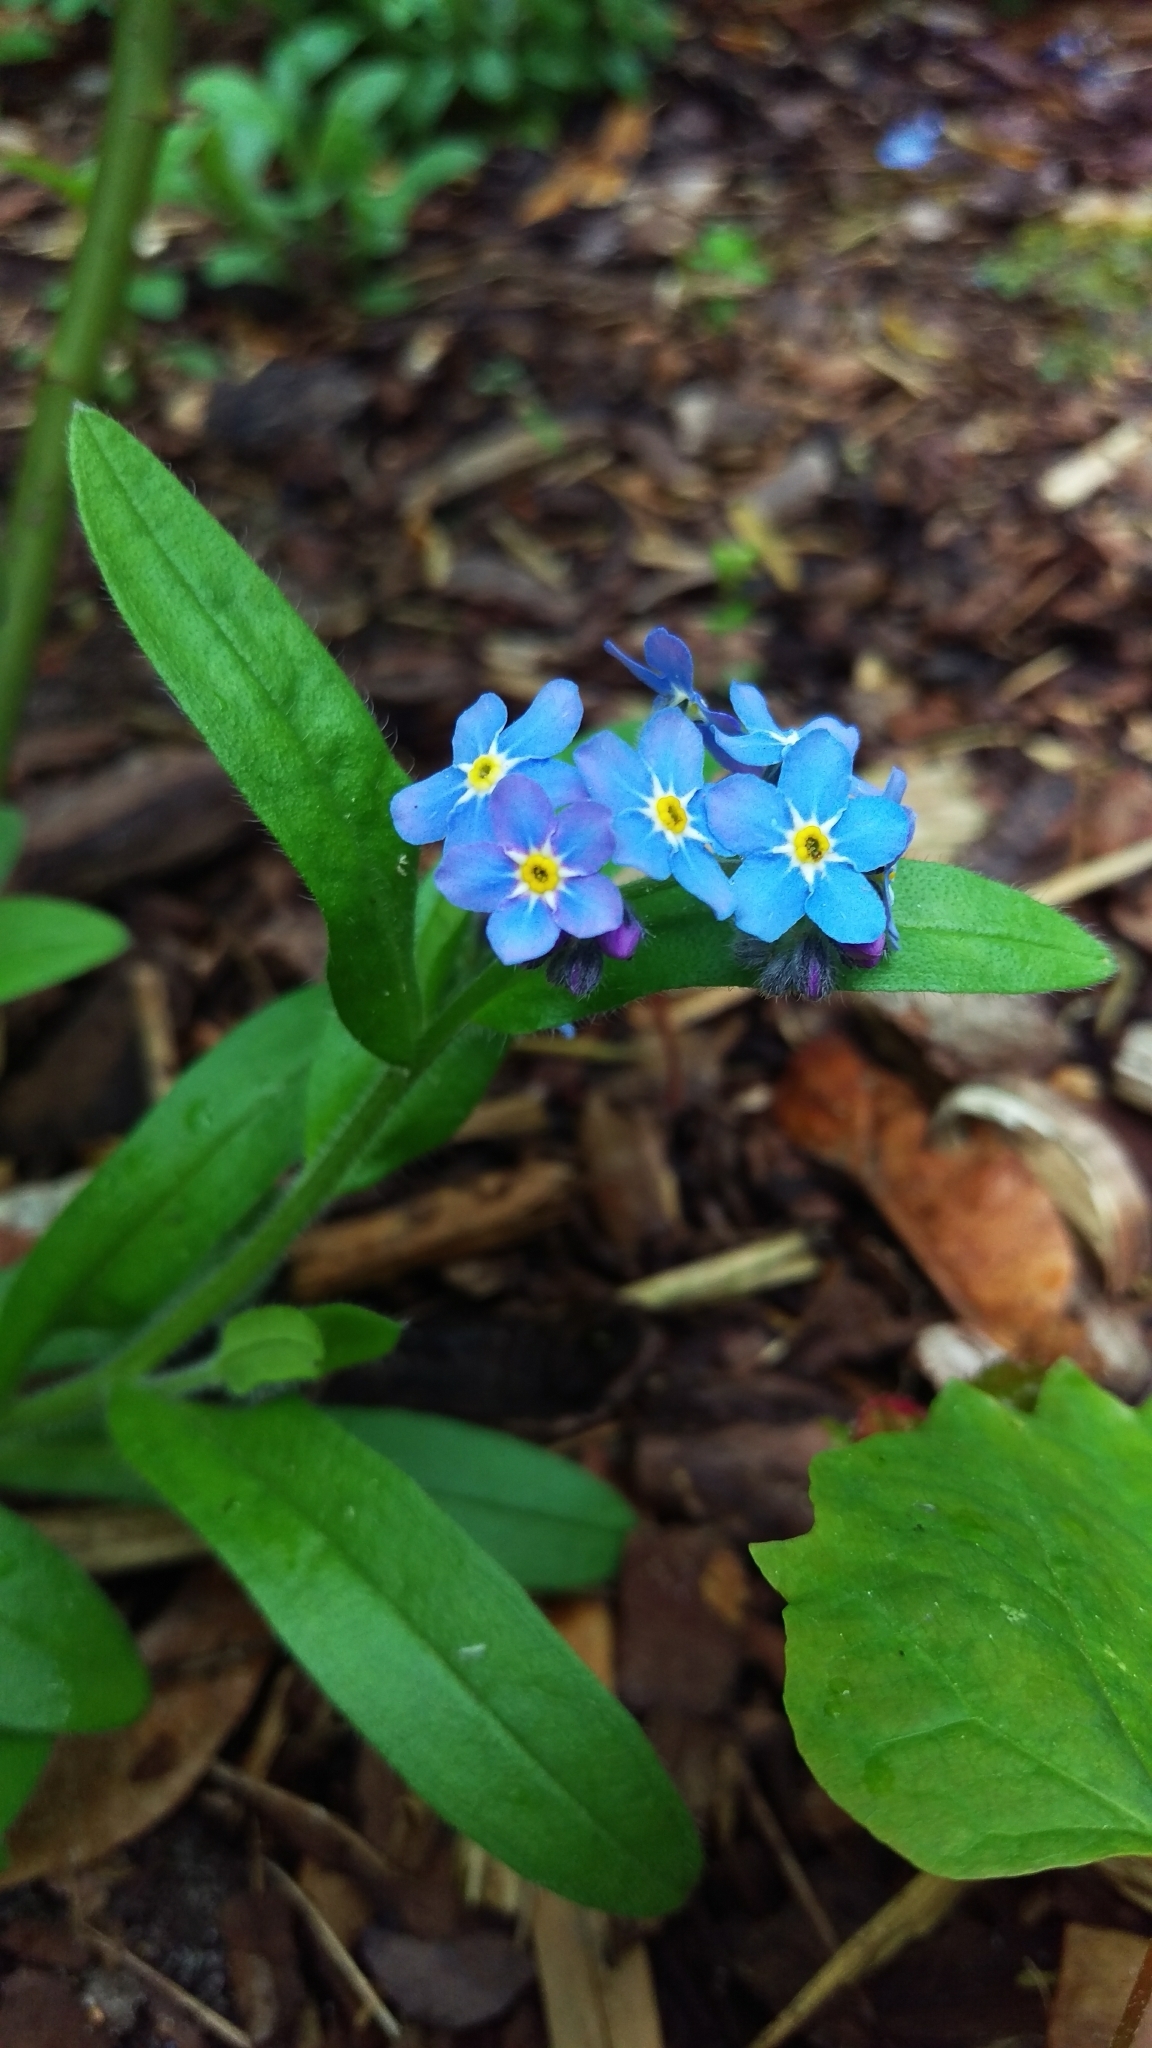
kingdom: Plantae
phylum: Tracheophyta
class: Magnoliopsida
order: Boraginales
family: Boraginaceae
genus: Myosotis
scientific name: Myosotis sylvatica
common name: Wood forget-me-not
